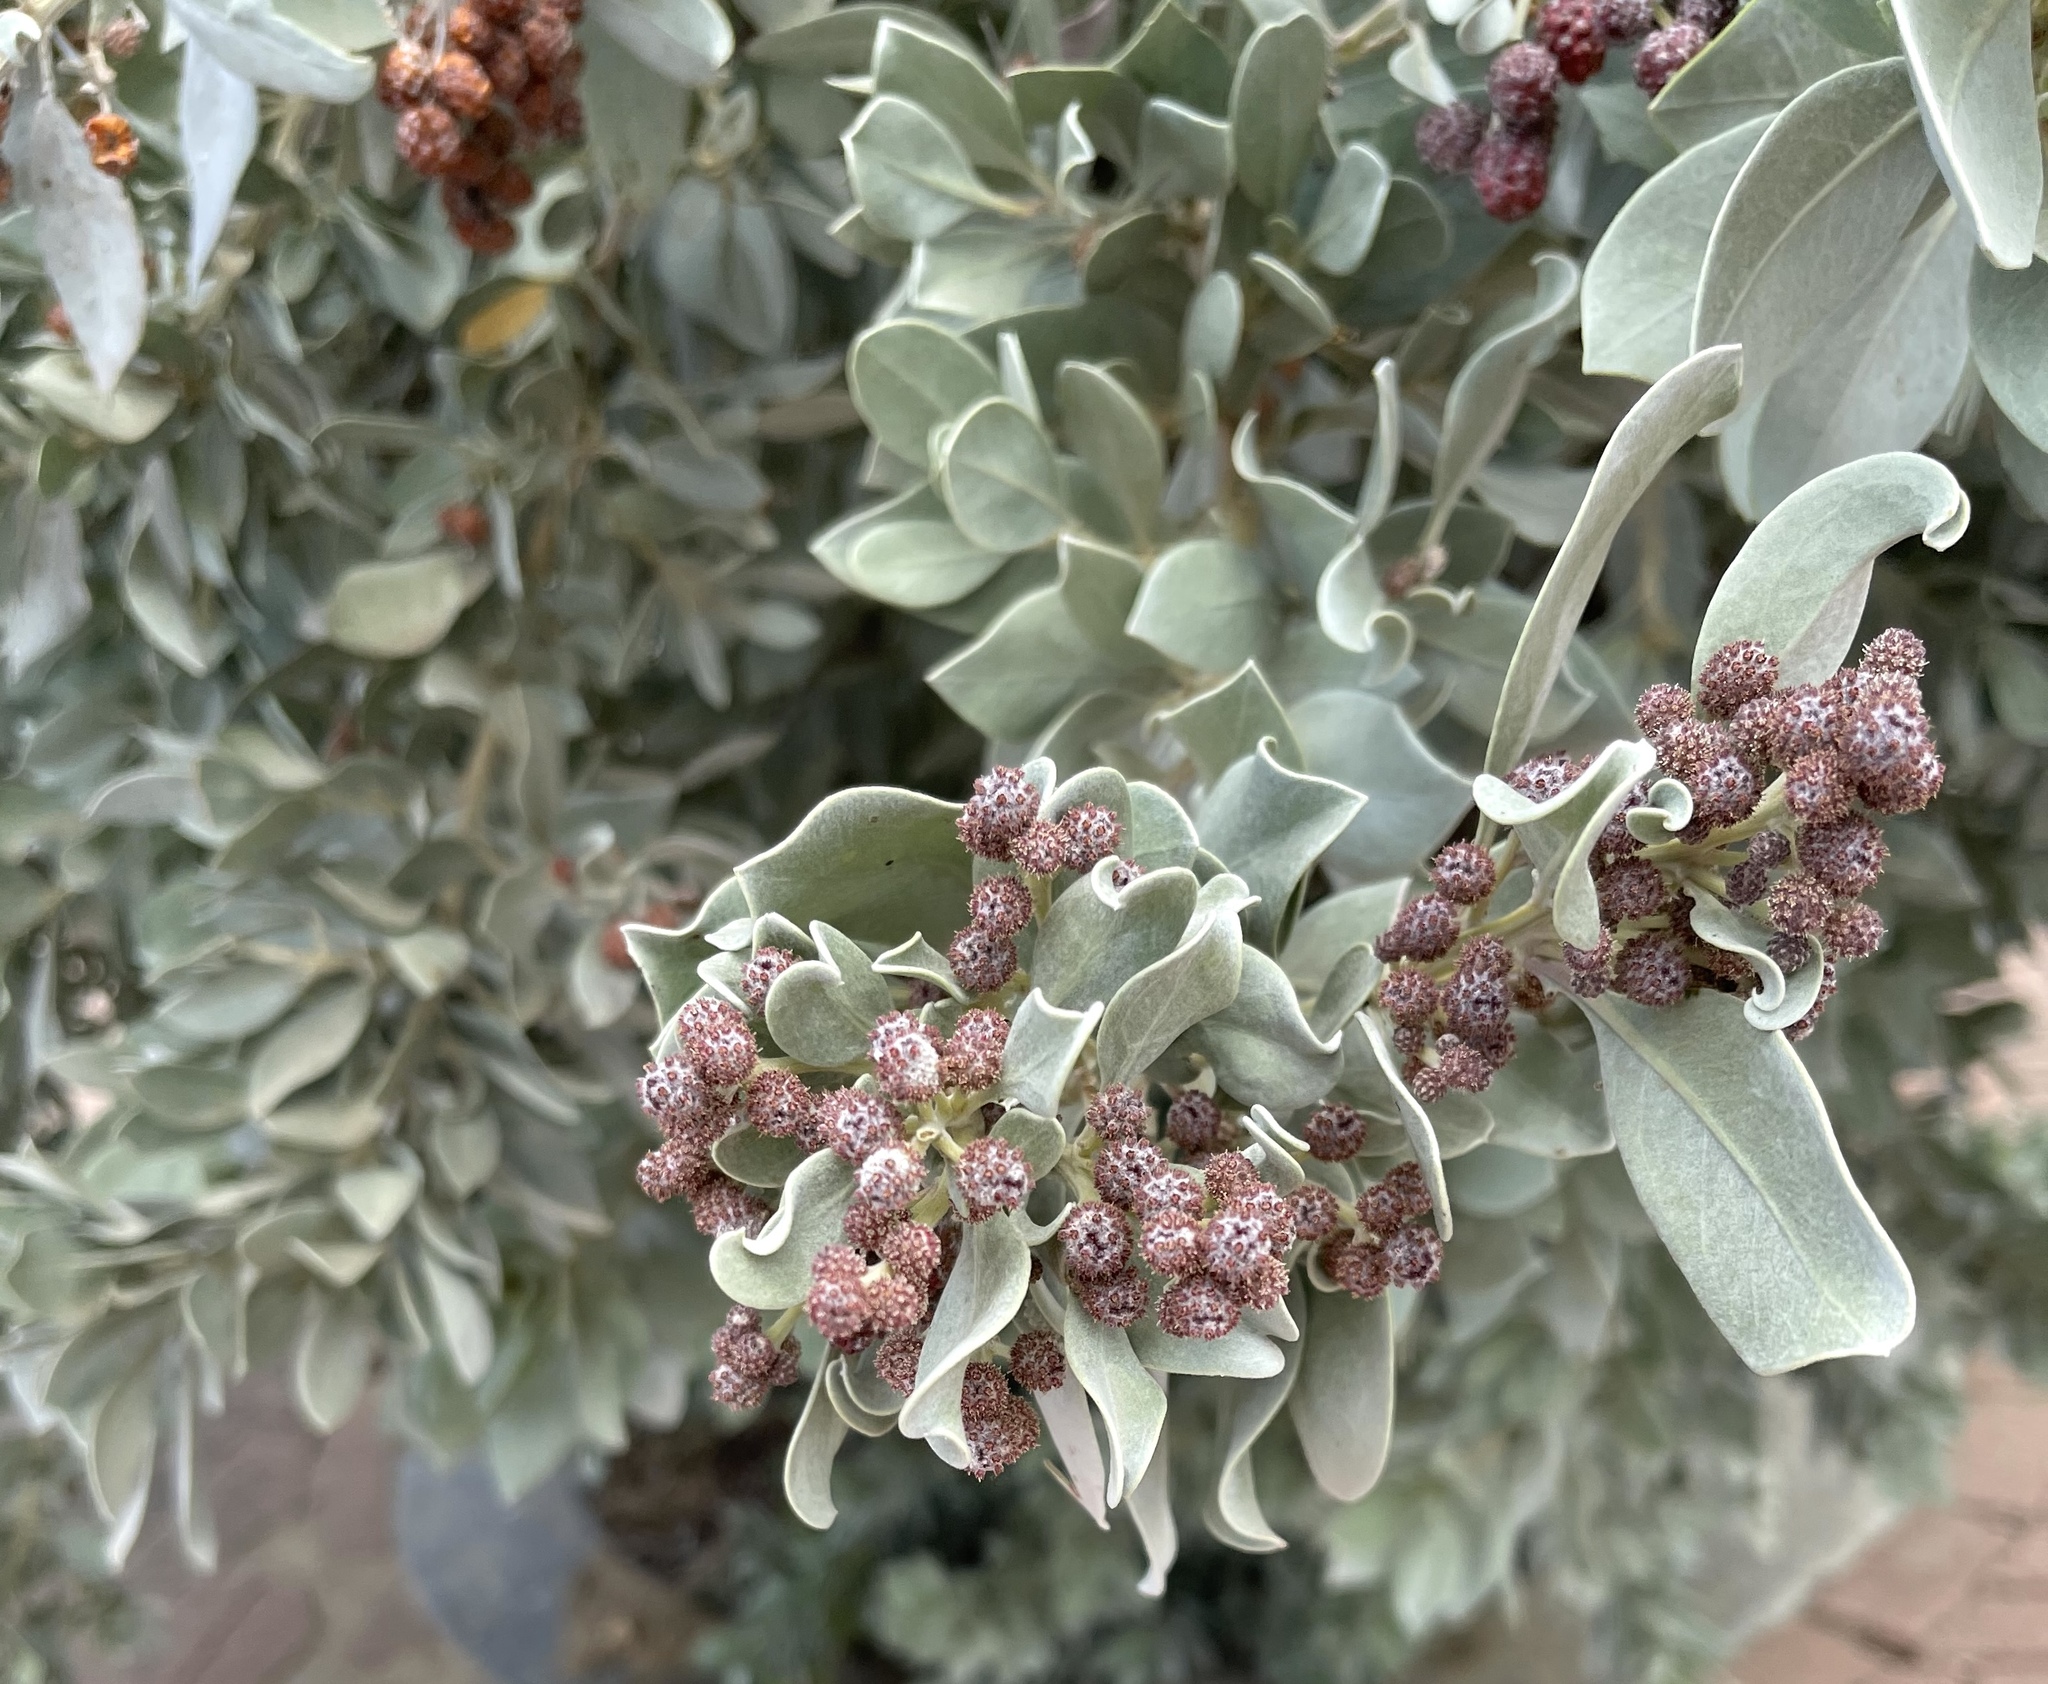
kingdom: Plantae
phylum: Tracheophyta
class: Magnoliopsida
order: Myrtales
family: Combretaceae
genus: Conocarpus
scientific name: Conocarpus erectus
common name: Button mangrove
